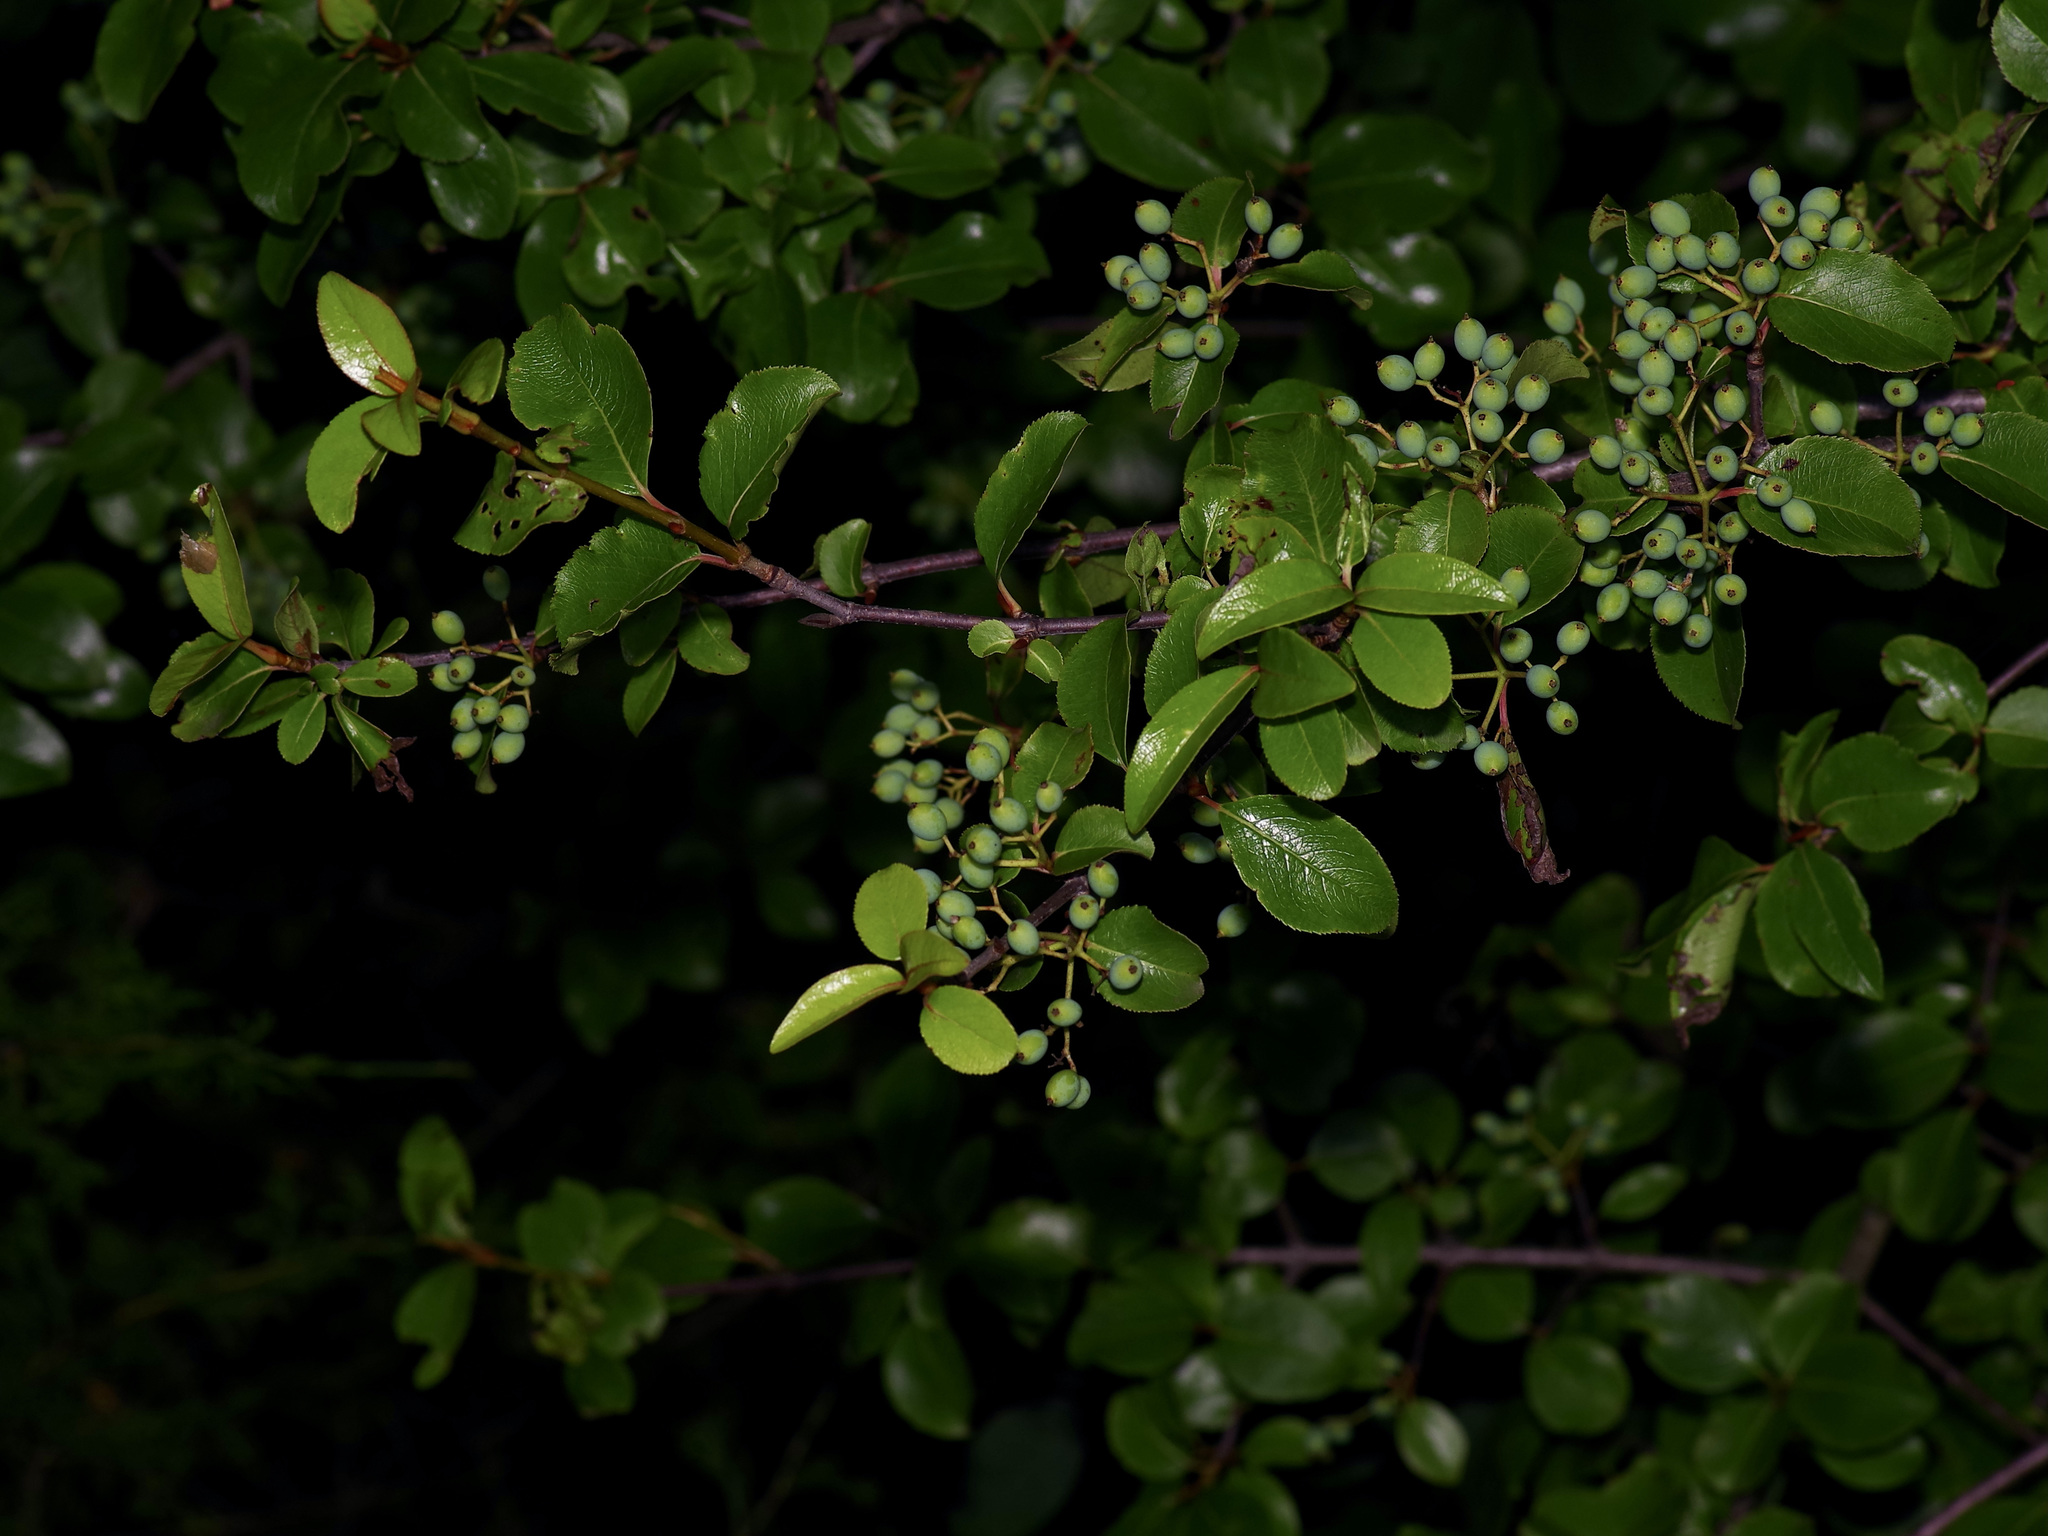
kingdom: Plantae
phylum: Tracheophyta
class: Magnoliopsida
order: Dipsacales
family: Viburnaceae
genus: Viburnum
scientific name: Viburnum rufidulum
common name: Blue haw
